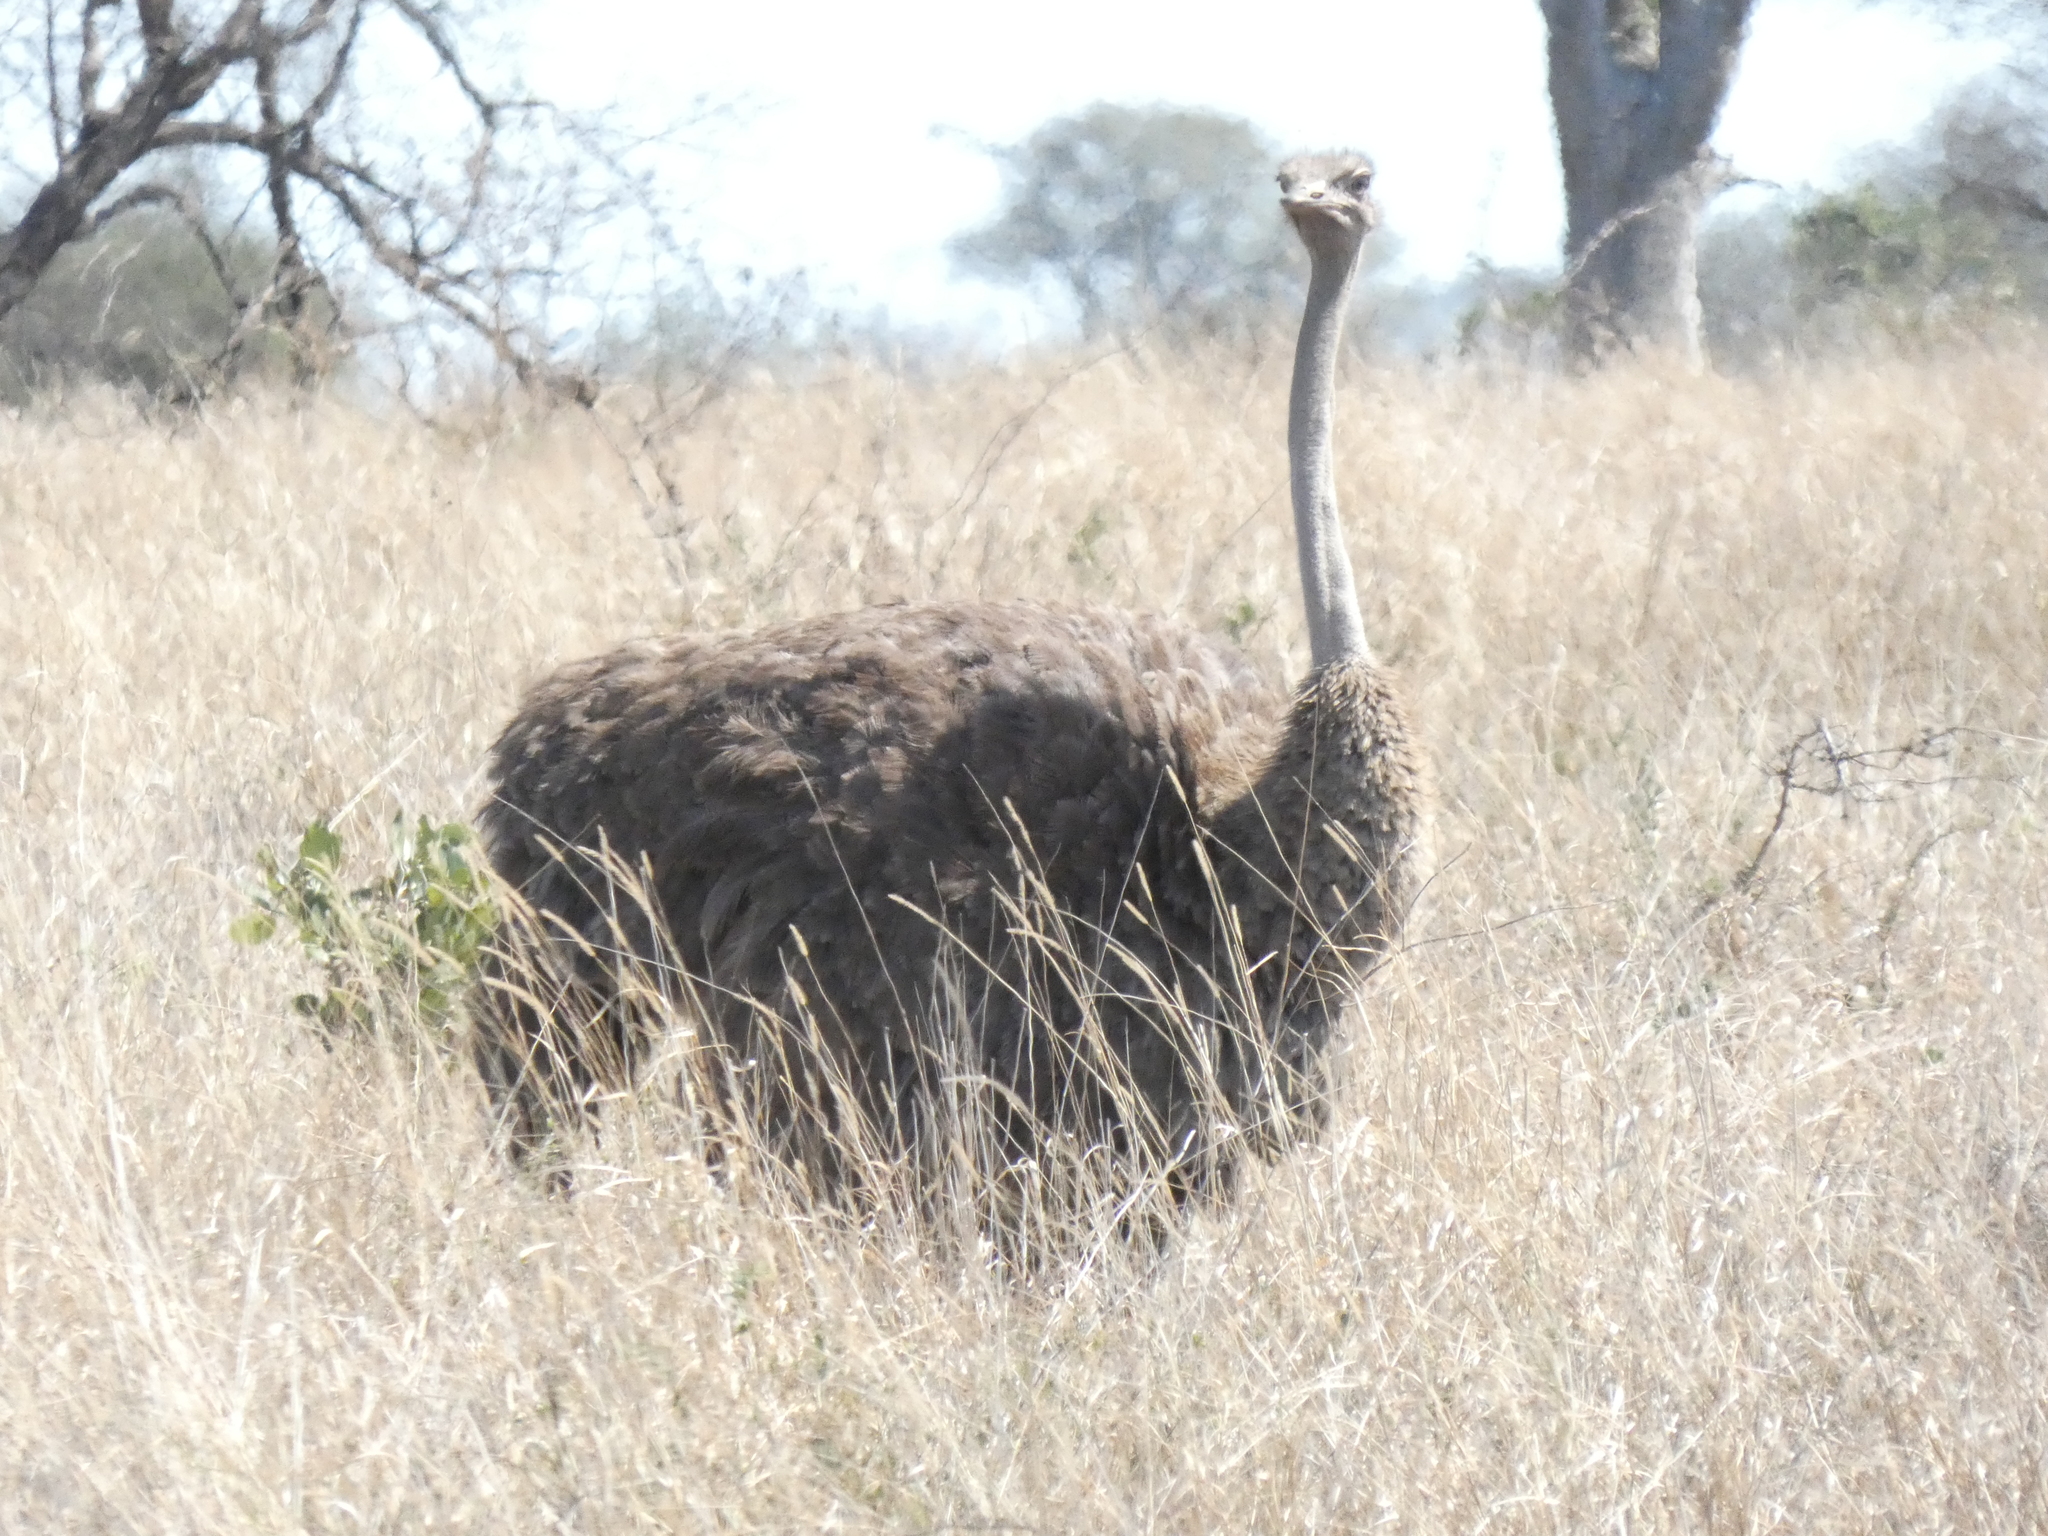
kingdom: Animalia
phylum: Chordata
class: Aves
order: Struthioniformes
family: Struthionidae
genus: Struthio
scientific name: Struthio camelus
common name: Common ostrich
